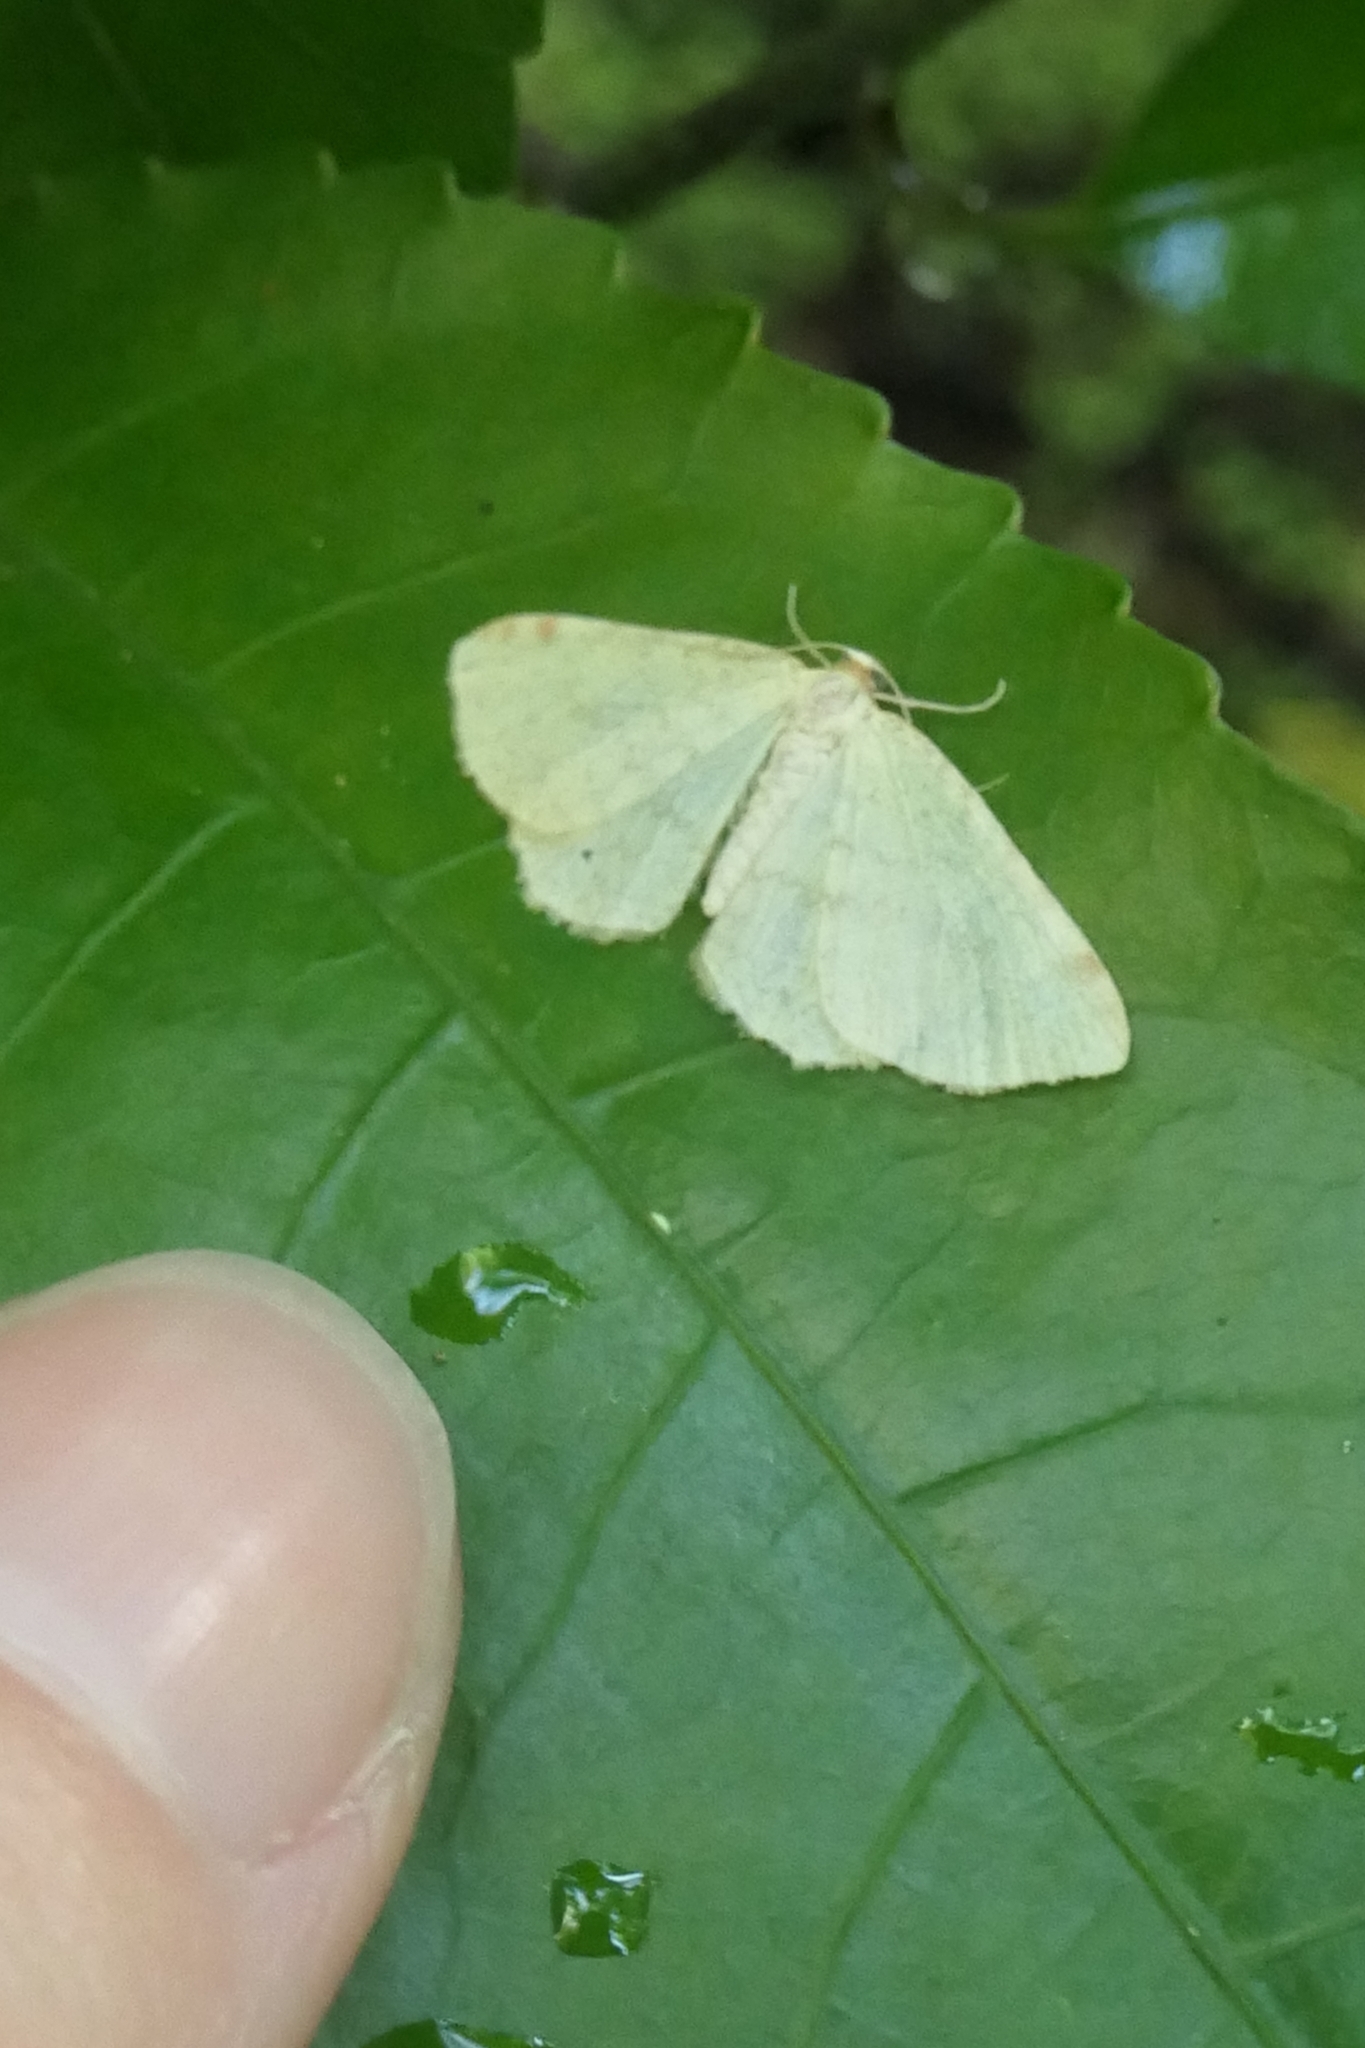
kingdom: Animalia
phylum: Arthropoda
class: Insecta
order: Lepidoptera
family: Geometridae
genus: Epiphryne
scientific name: Epiphryne undosata
